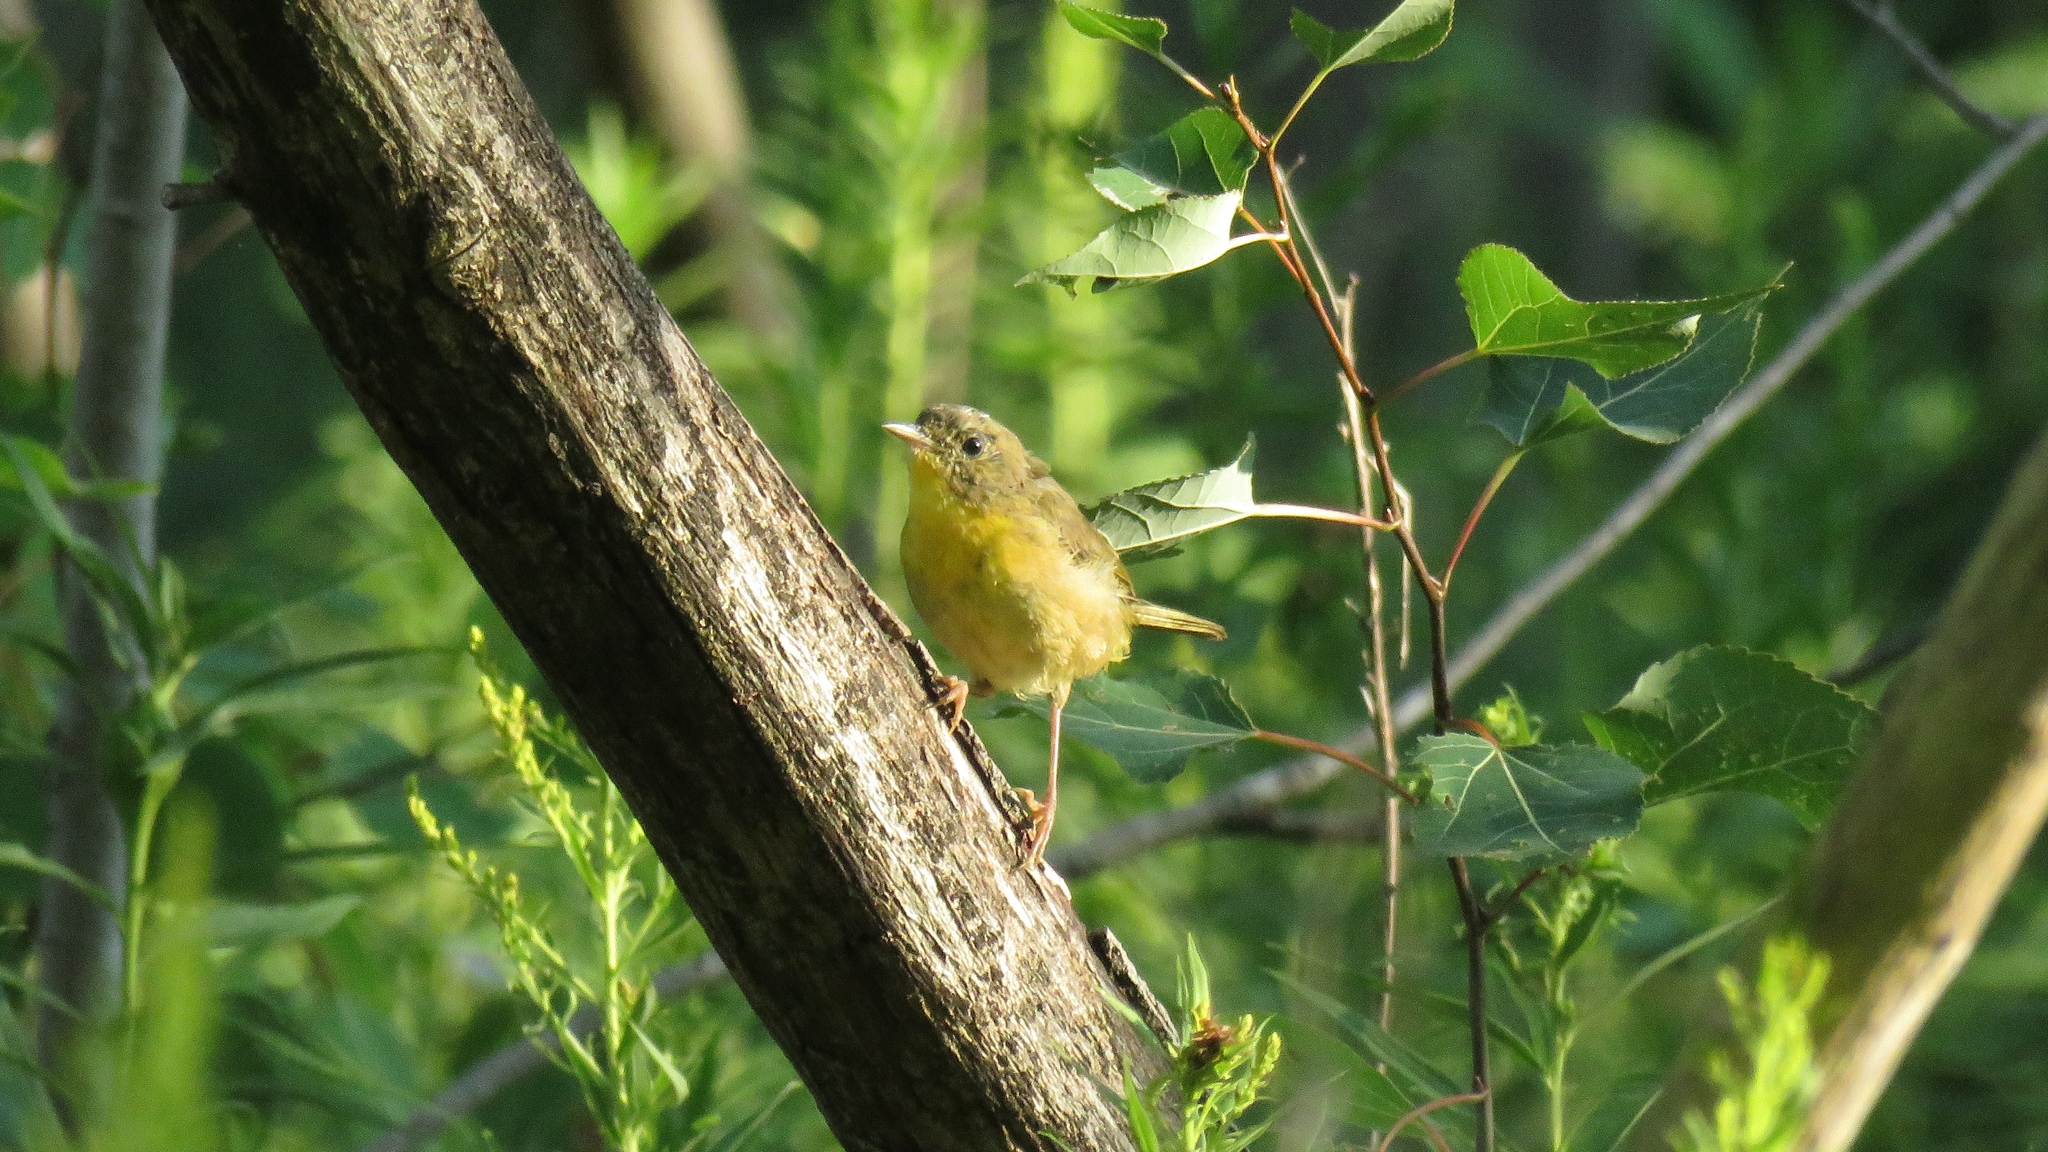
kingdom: Animalia
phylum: Chordata
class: Aves
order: Passeriformes
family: Parulidae
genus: Geothlypis
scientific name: Geothlypis trichas
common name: Common yellowthroat
